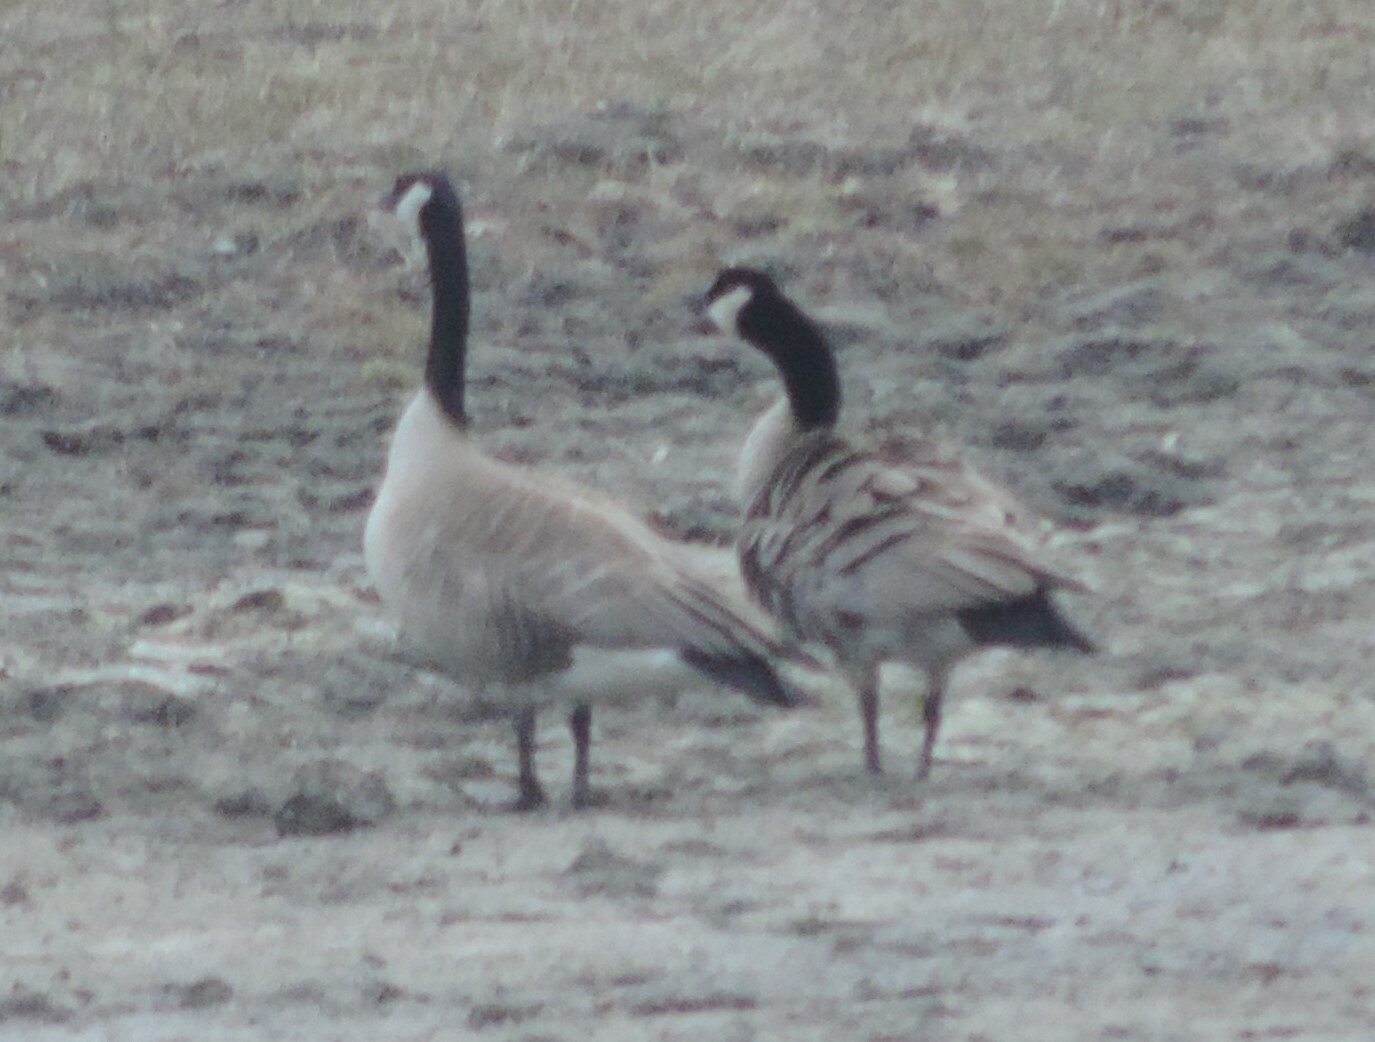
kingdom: Animalia
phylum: Chordata
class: Aves
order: Anseriformes
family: Anatidae
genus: Branta
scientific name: Branta canadensis
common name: Canada goose
